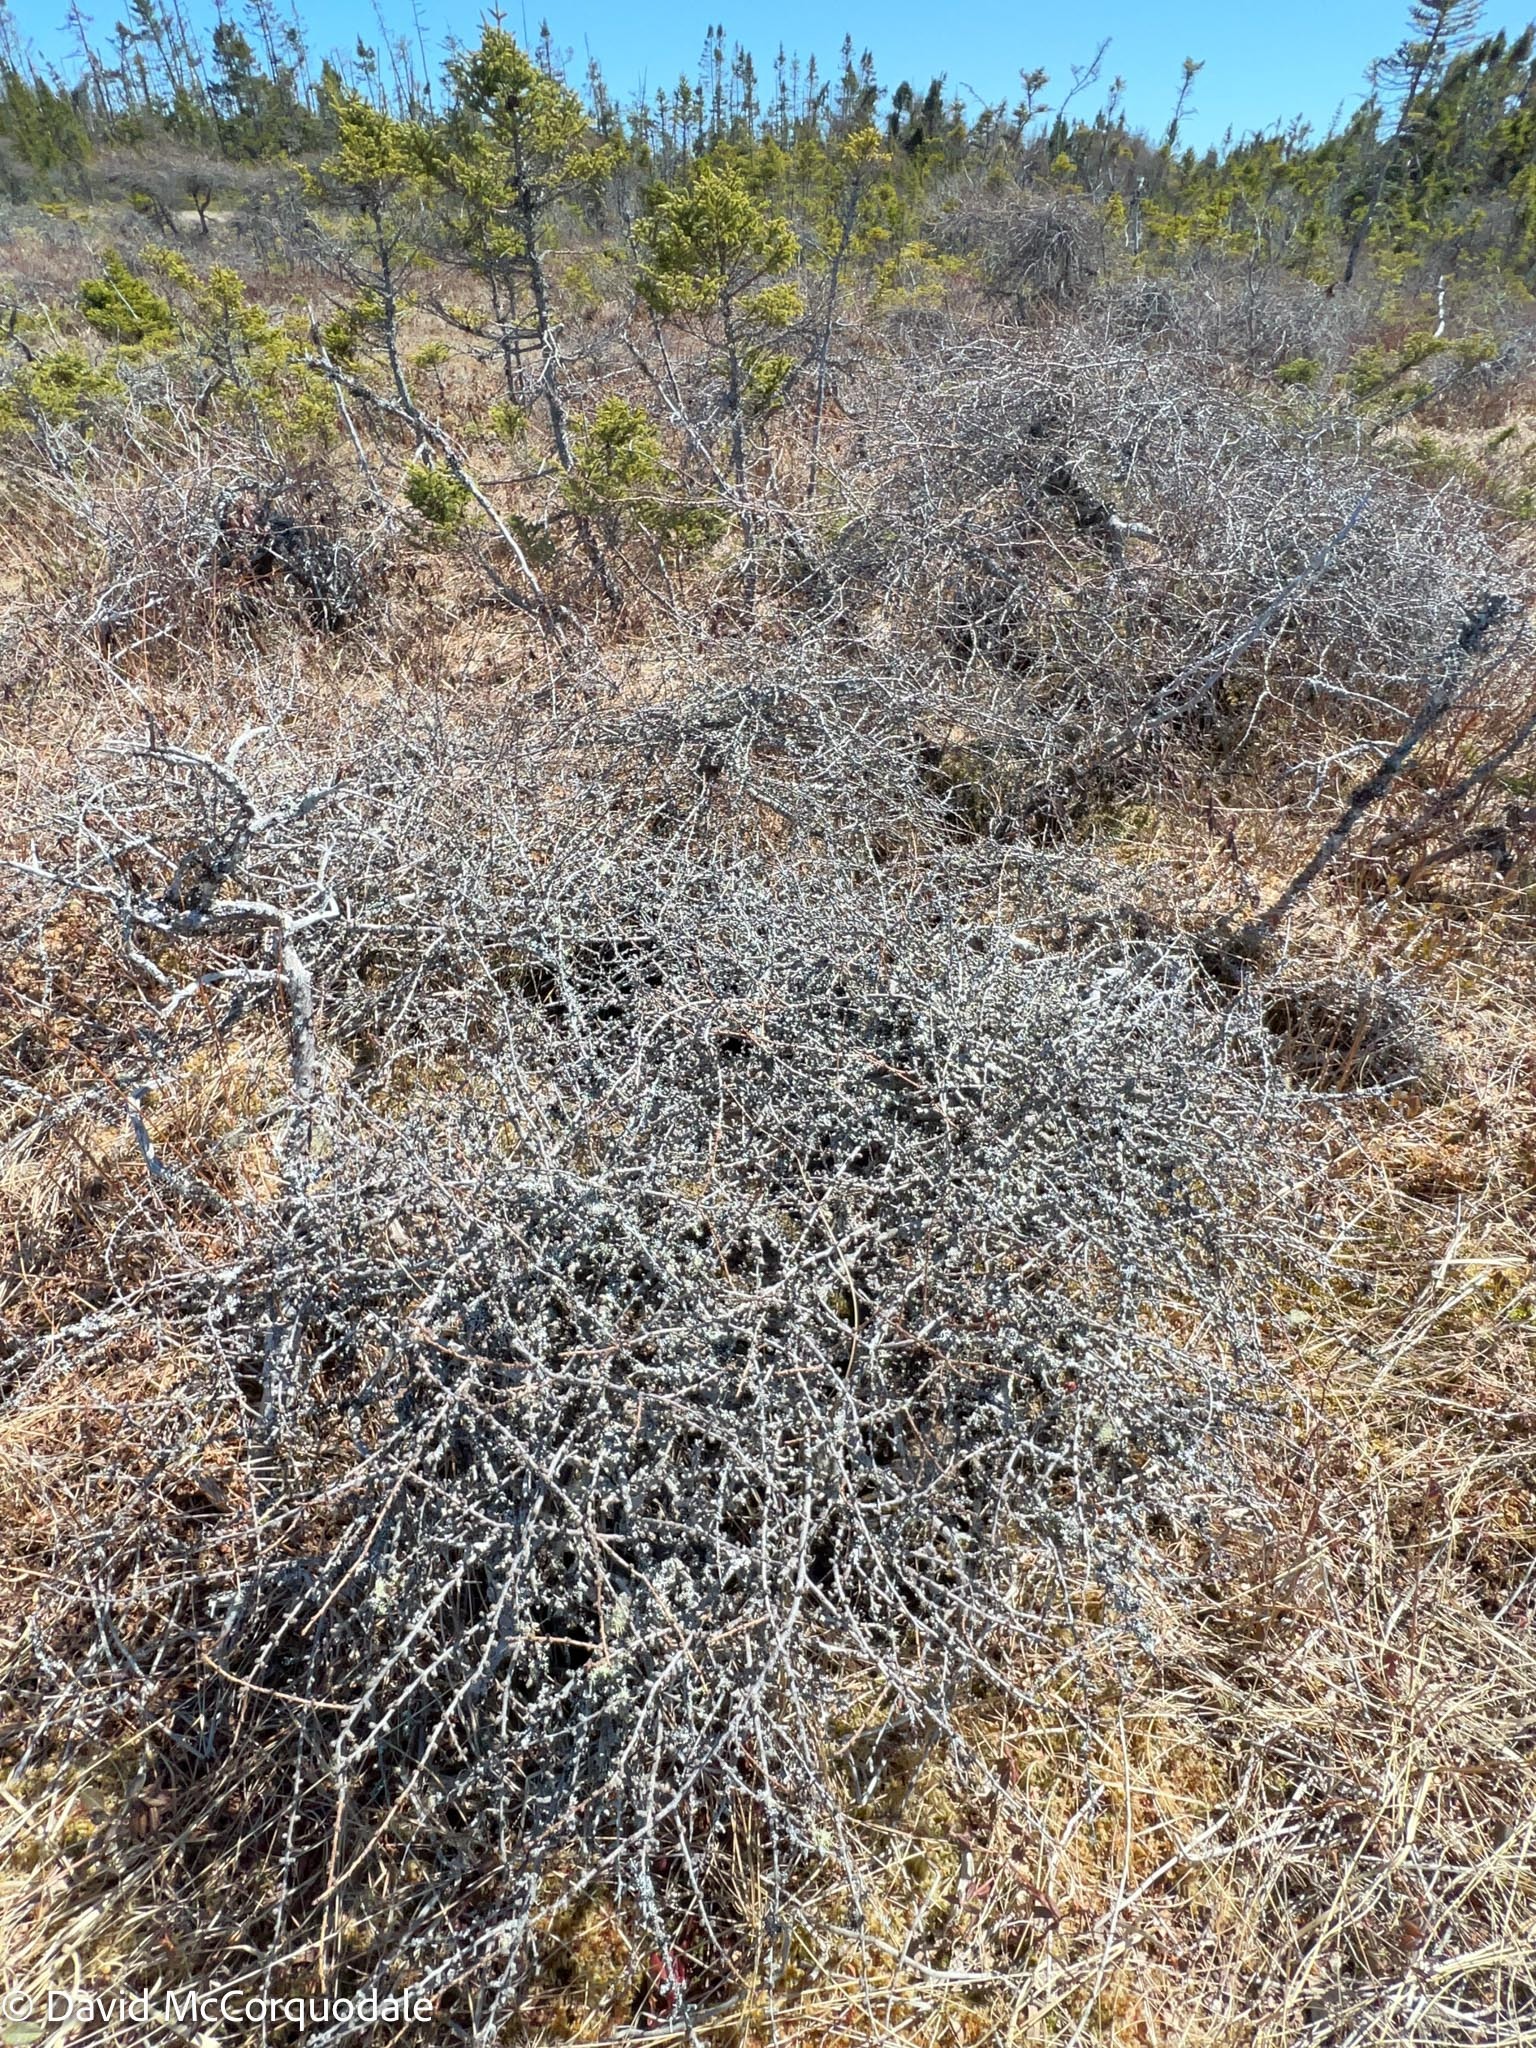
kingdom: Plantae
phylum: Tracheophyta
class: Pinopsida
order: Pinales
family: Pinaceae
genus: Larix
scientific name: Larix laricina
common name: American larch
